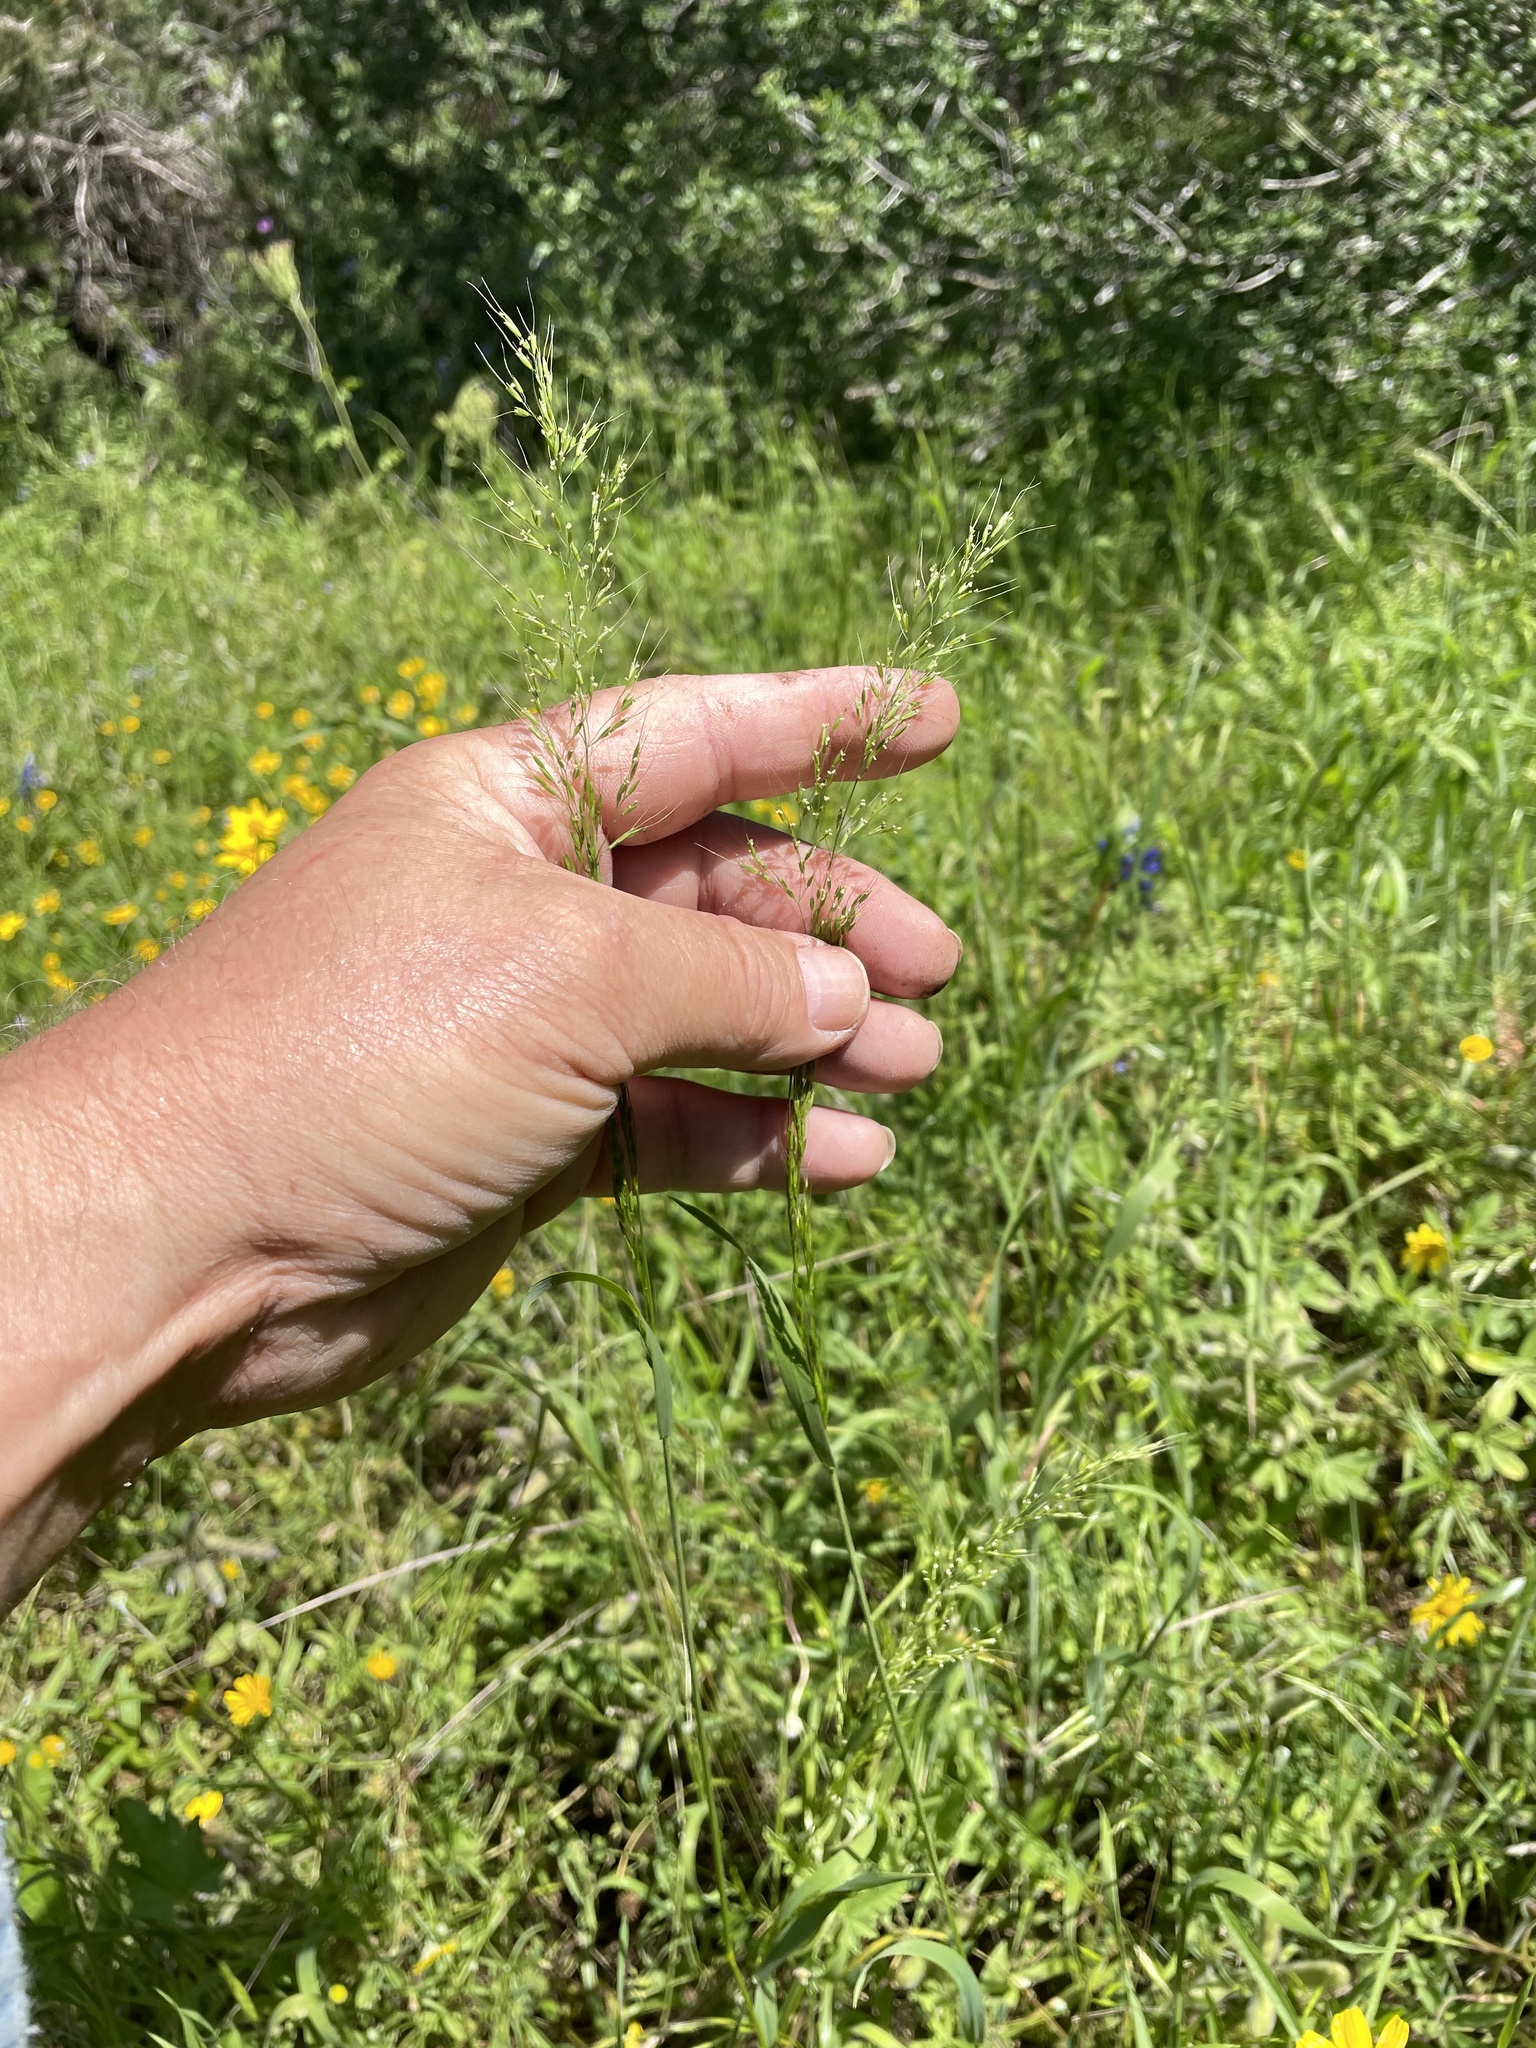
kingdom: Plantae
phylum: Tracheophyta
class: Liliopsida
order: Poales
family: Poaceae
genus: Limnodea
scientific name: Limnodea arkansana
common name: Ozark-grass
